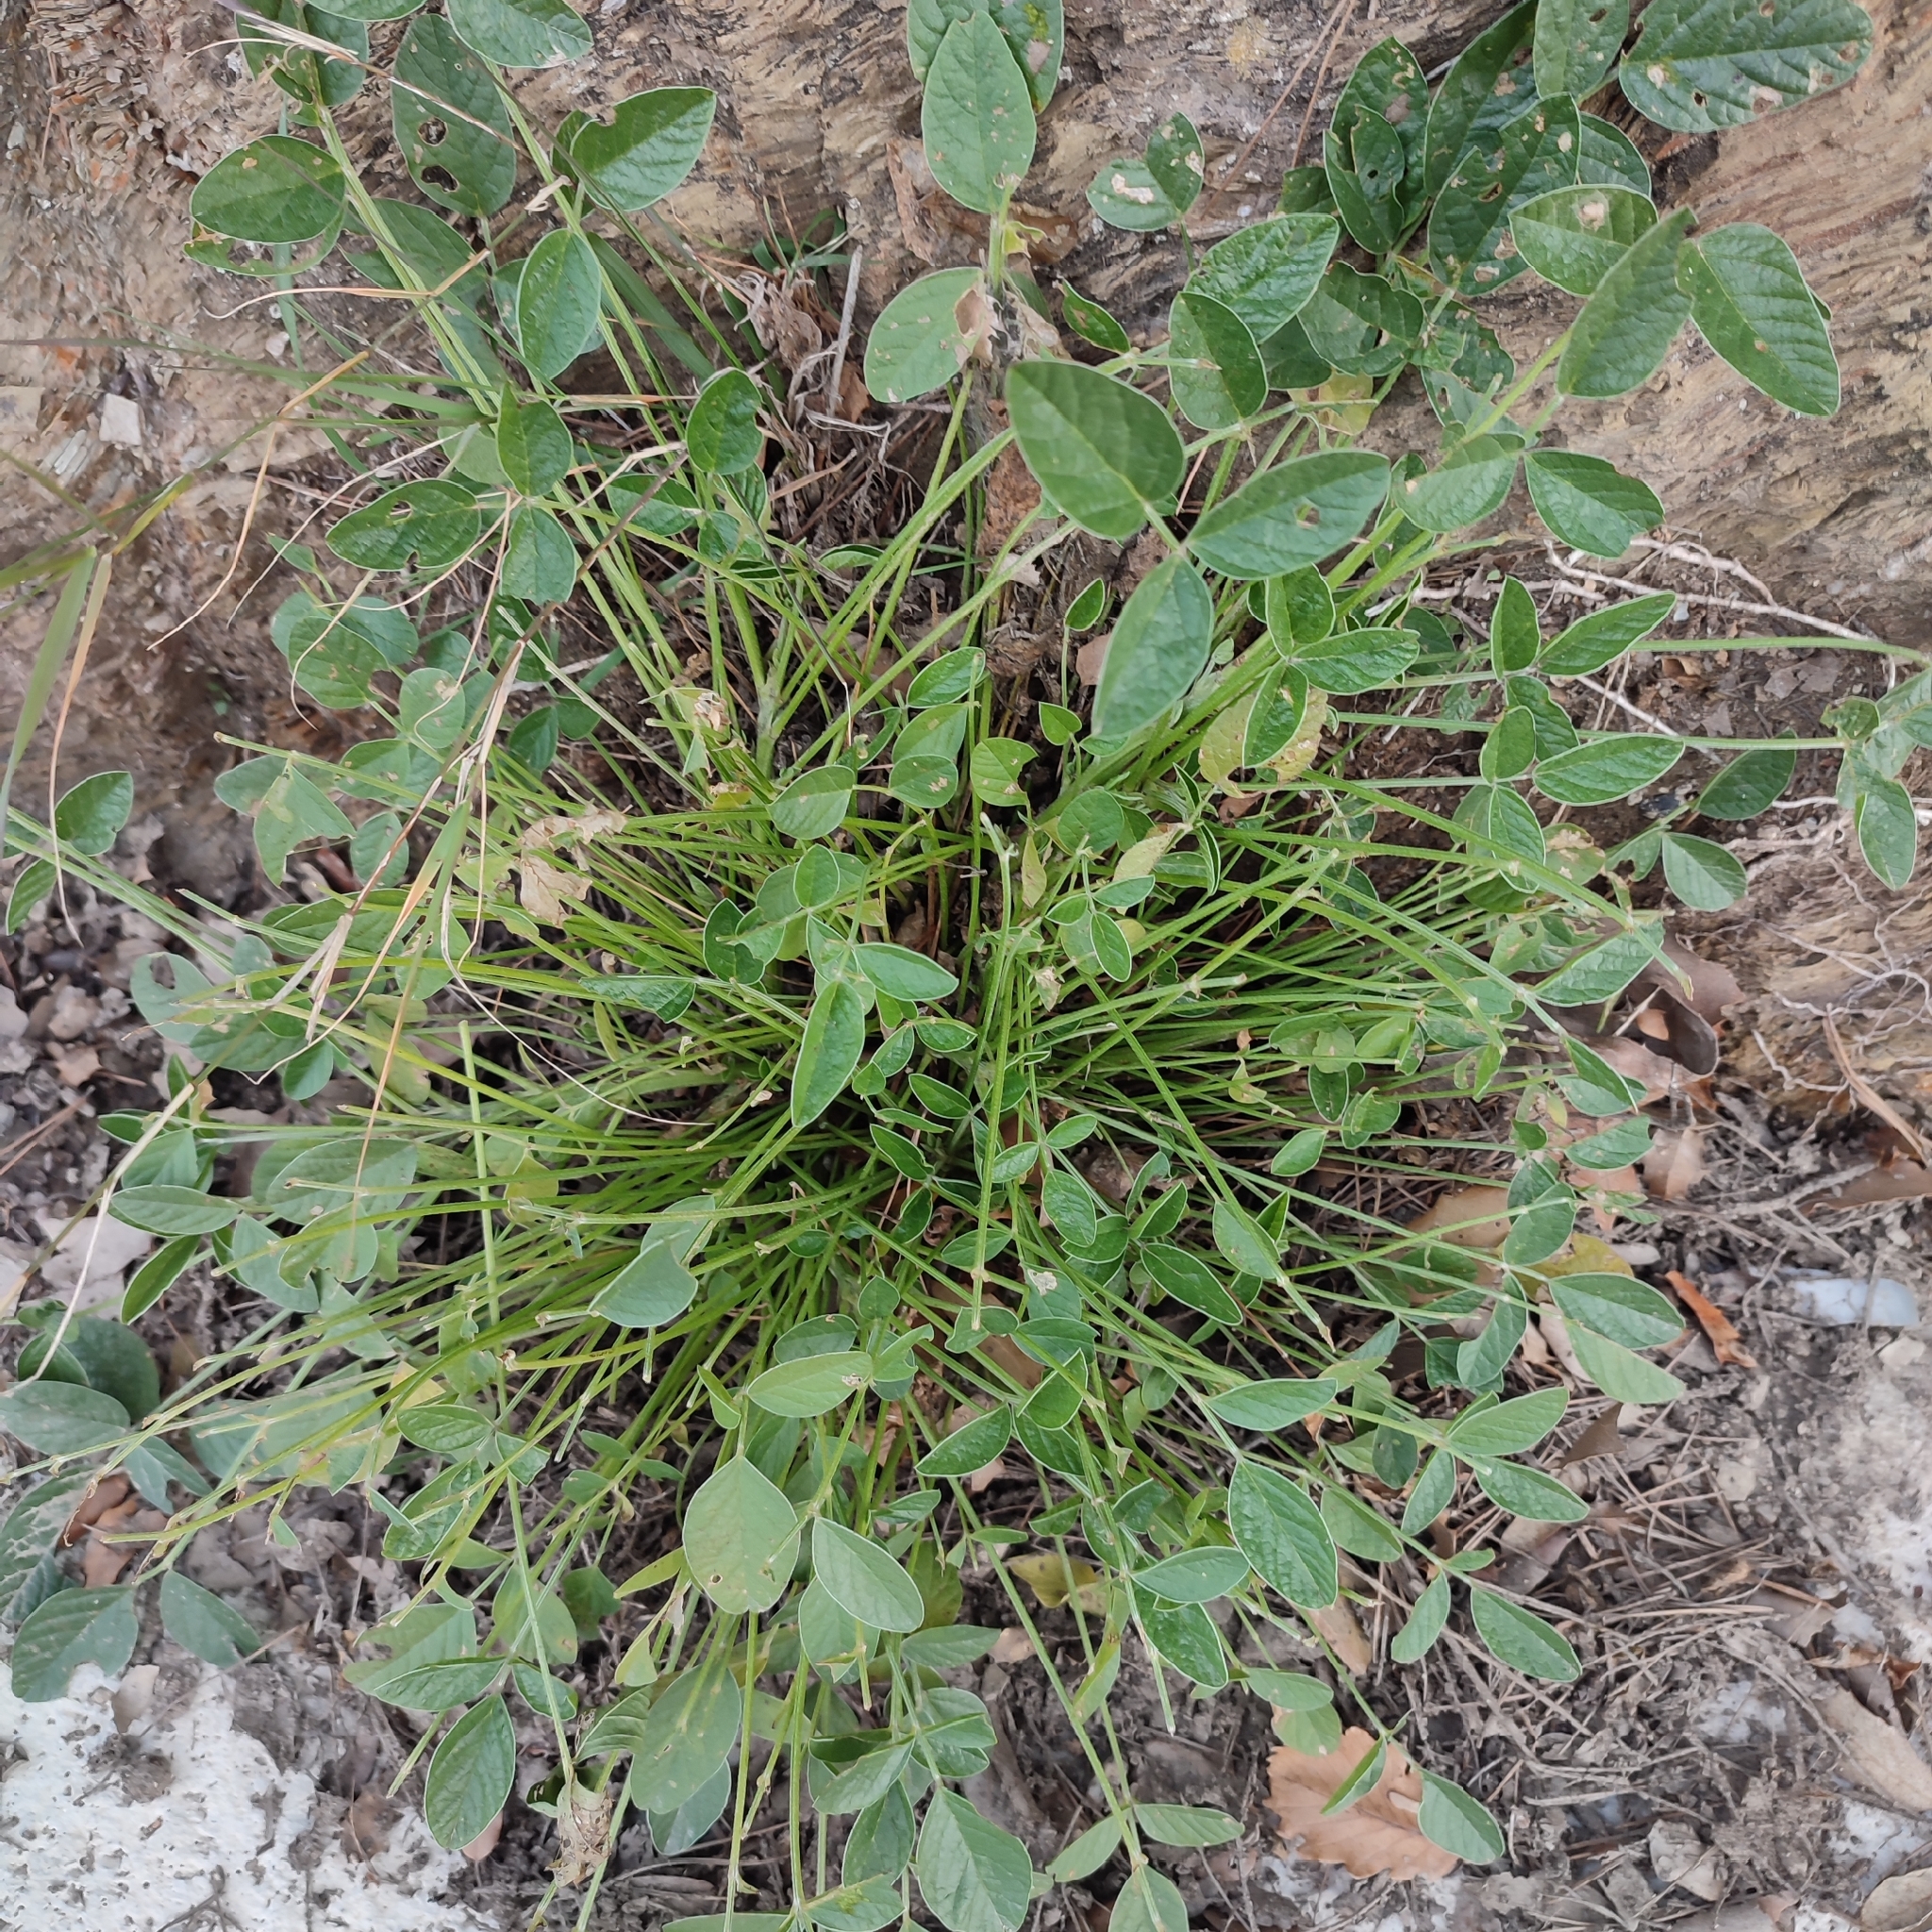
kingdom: Plantae
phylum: Tracheophyta
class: Magnoliopsida
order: Fabales
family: Fabaceae
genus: Bituminaria
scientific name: Bituminaria bituminosa
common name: Arabian pea
